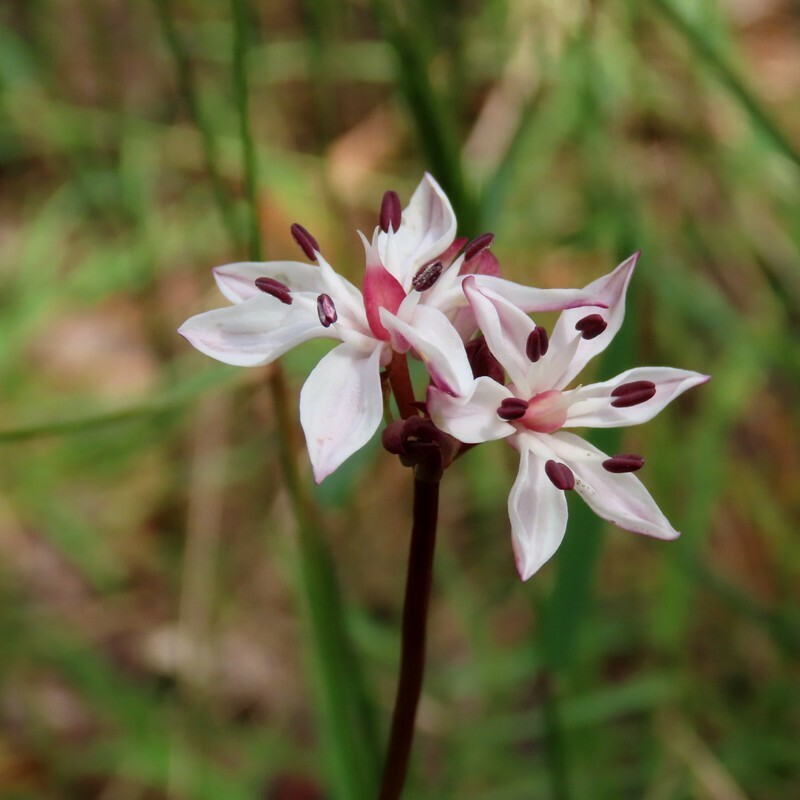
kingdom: Plantae
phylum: Tracheophyta
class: Liliopsida
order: Liliales
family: Colchicaceae
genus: Burchardia
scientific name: Burchardia umbellata
